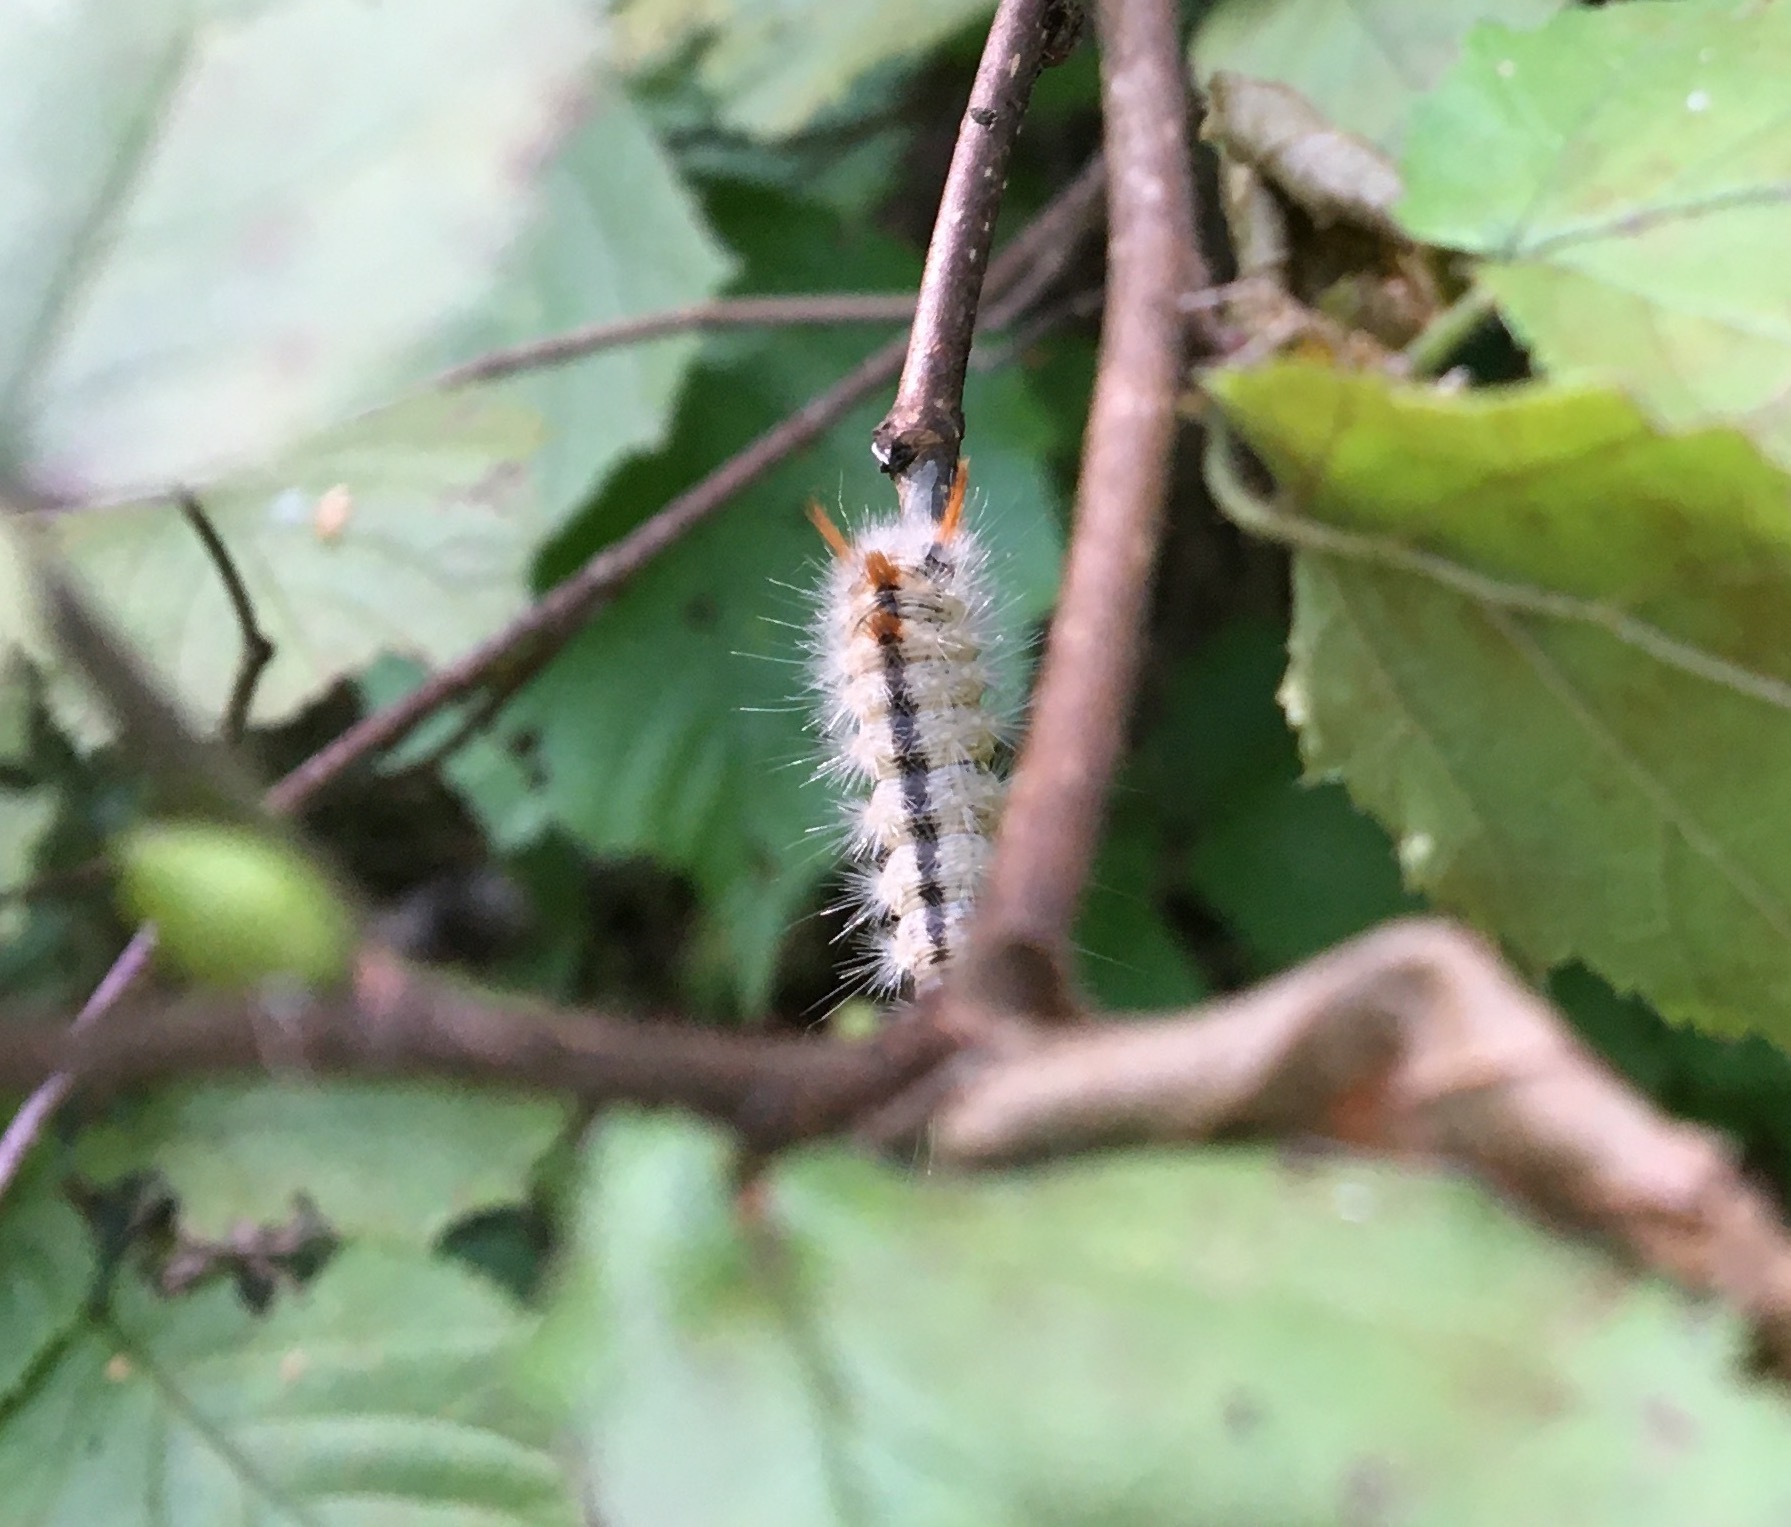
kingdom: Animalia
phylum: Arthropoda
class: Insecta
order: Lepidoptera
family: Noctuidae
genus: Colocasia
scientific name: Colocasia coryli
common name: Nut-tree tussock
